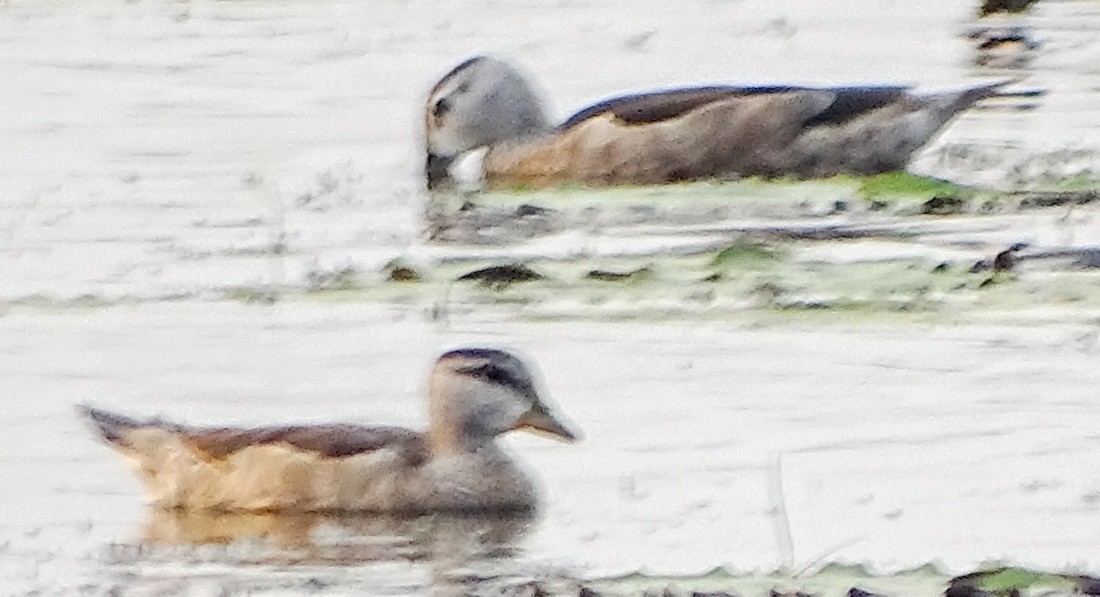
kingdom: Animalia
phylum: Chordata
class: Aves
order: Anseriformes
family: Anatidae
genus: Nettapus
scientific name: Nettapus coromandelianus
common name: Cotton pygmy-goose
